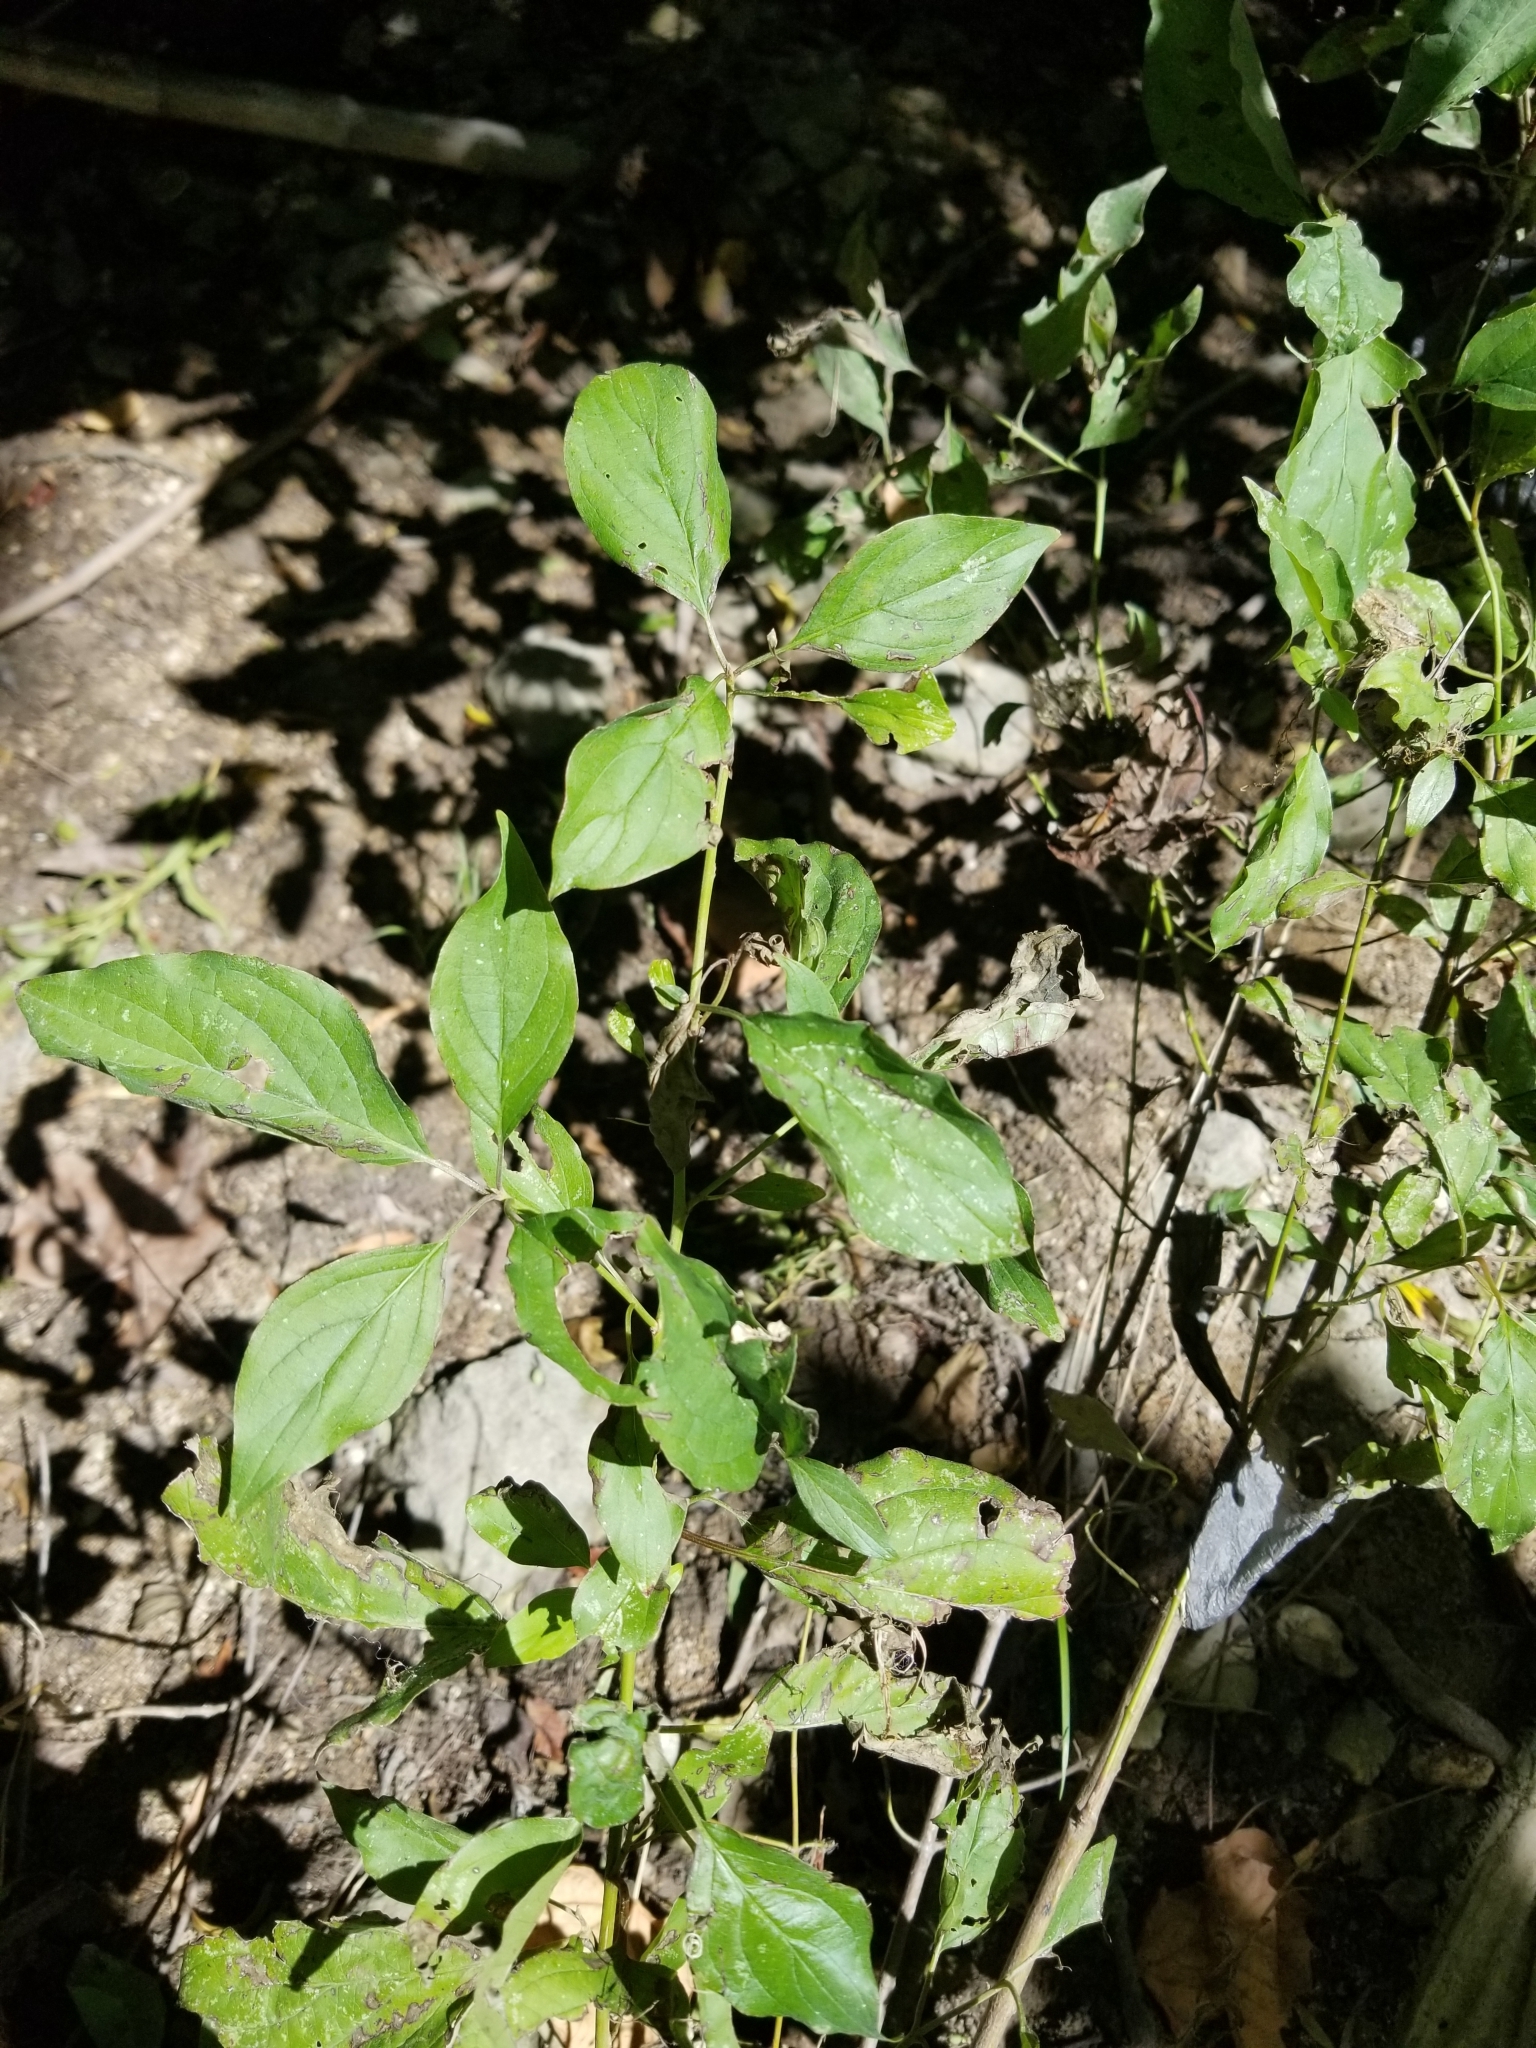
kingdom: Plantae
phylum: Tracheophyta
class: Magnoliopsida
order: Cornales
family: Cornaceae
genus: Cornus
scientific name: Cornus drummondii
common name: Rough-leaf dogwood
